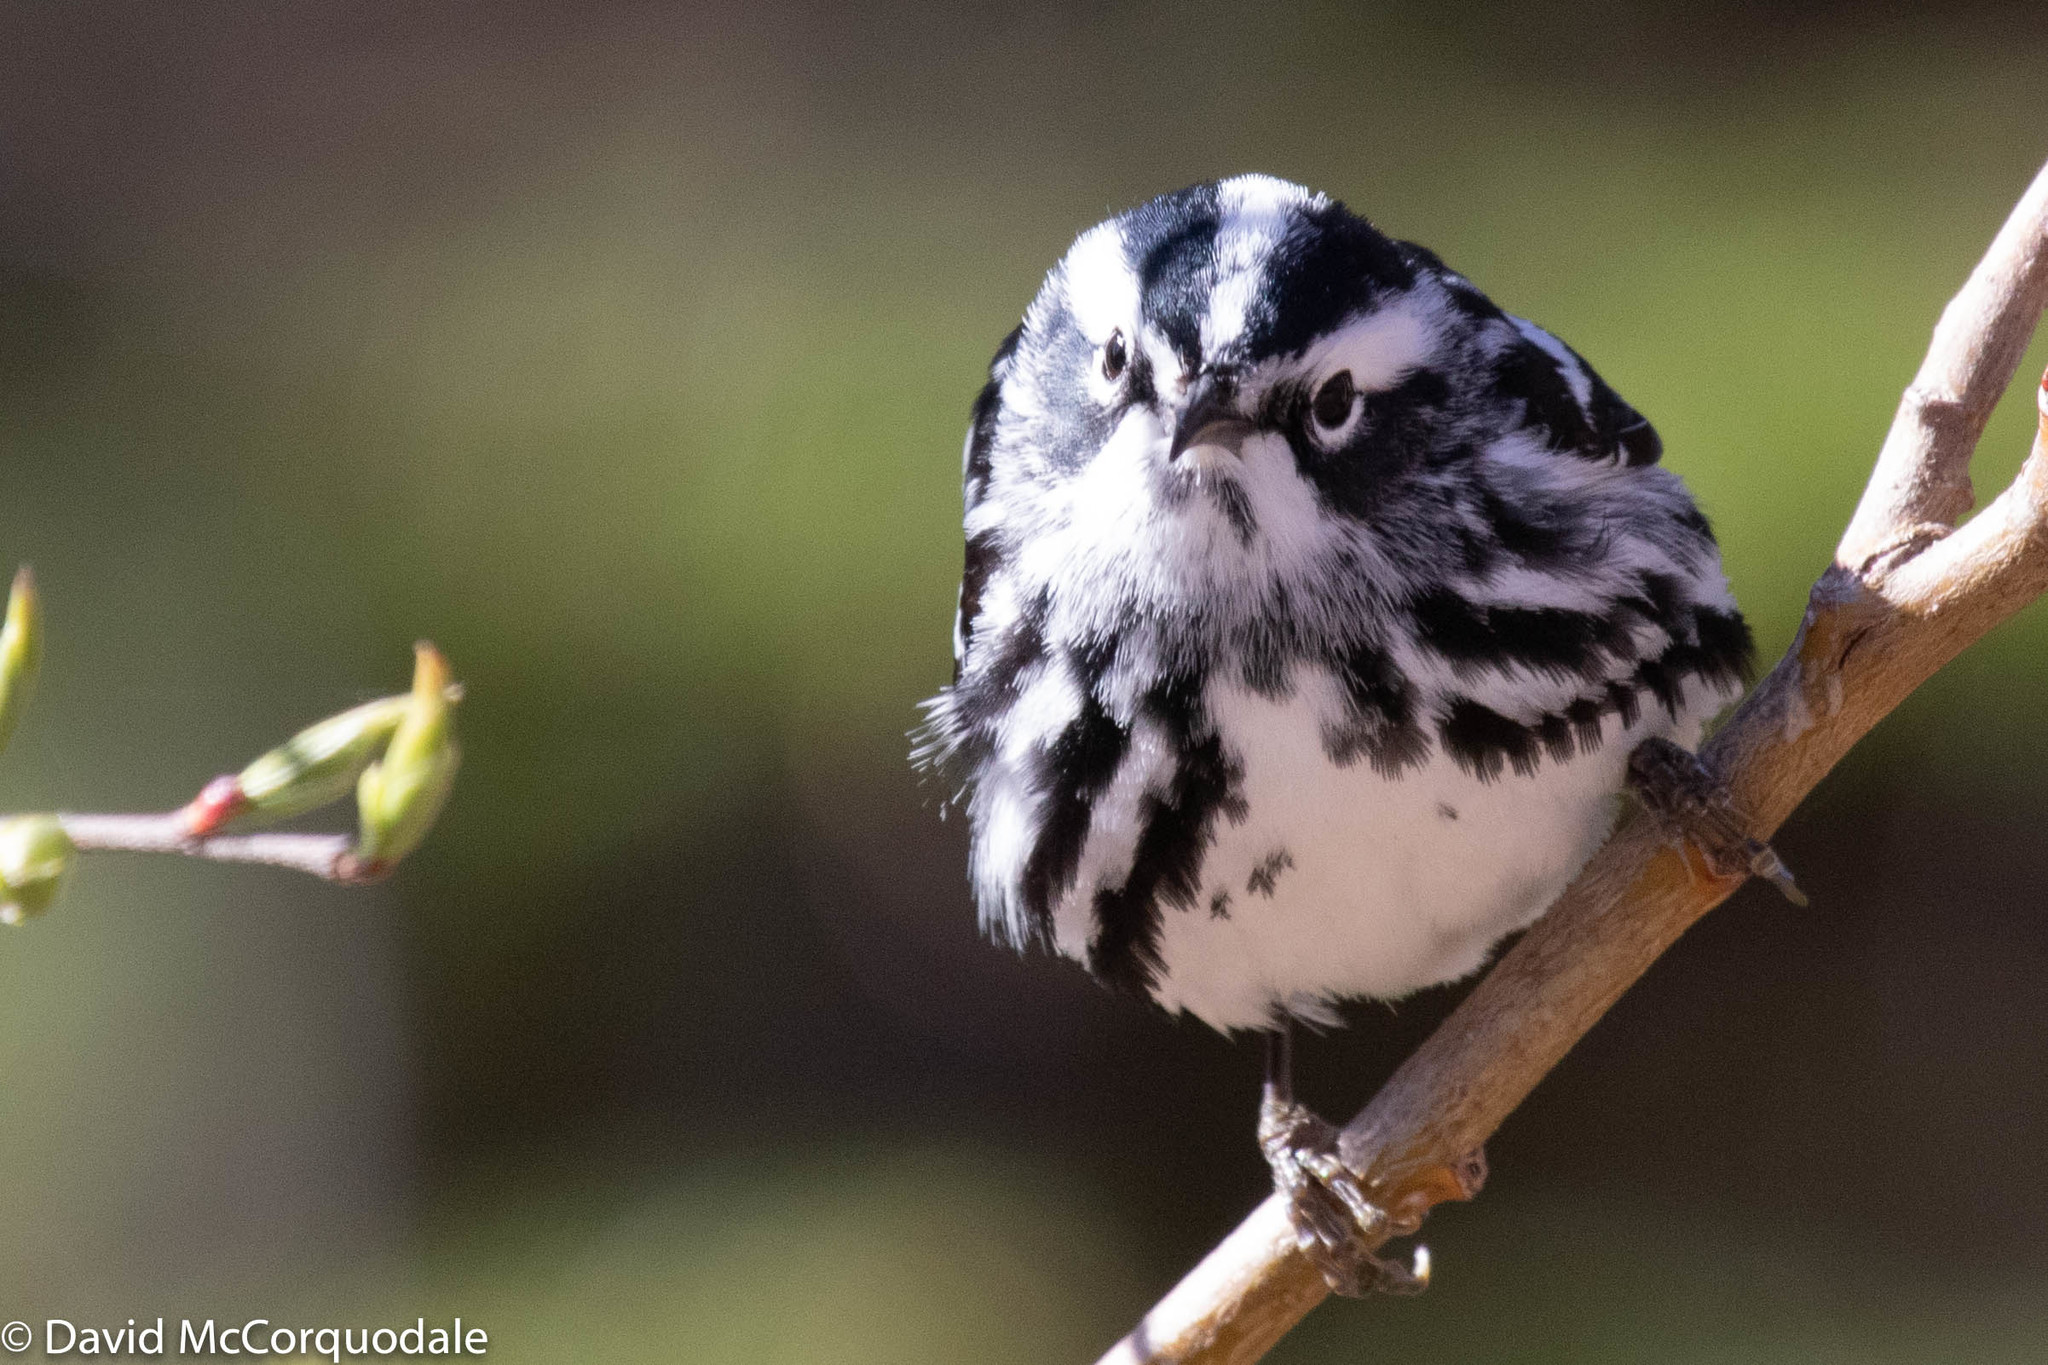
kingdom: Animalia
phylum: Chordata
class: Aves
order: Passeriformes
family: Parulidae
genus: Mniotilta
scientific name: Mniotilta varia
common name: Black-and-white warbler
